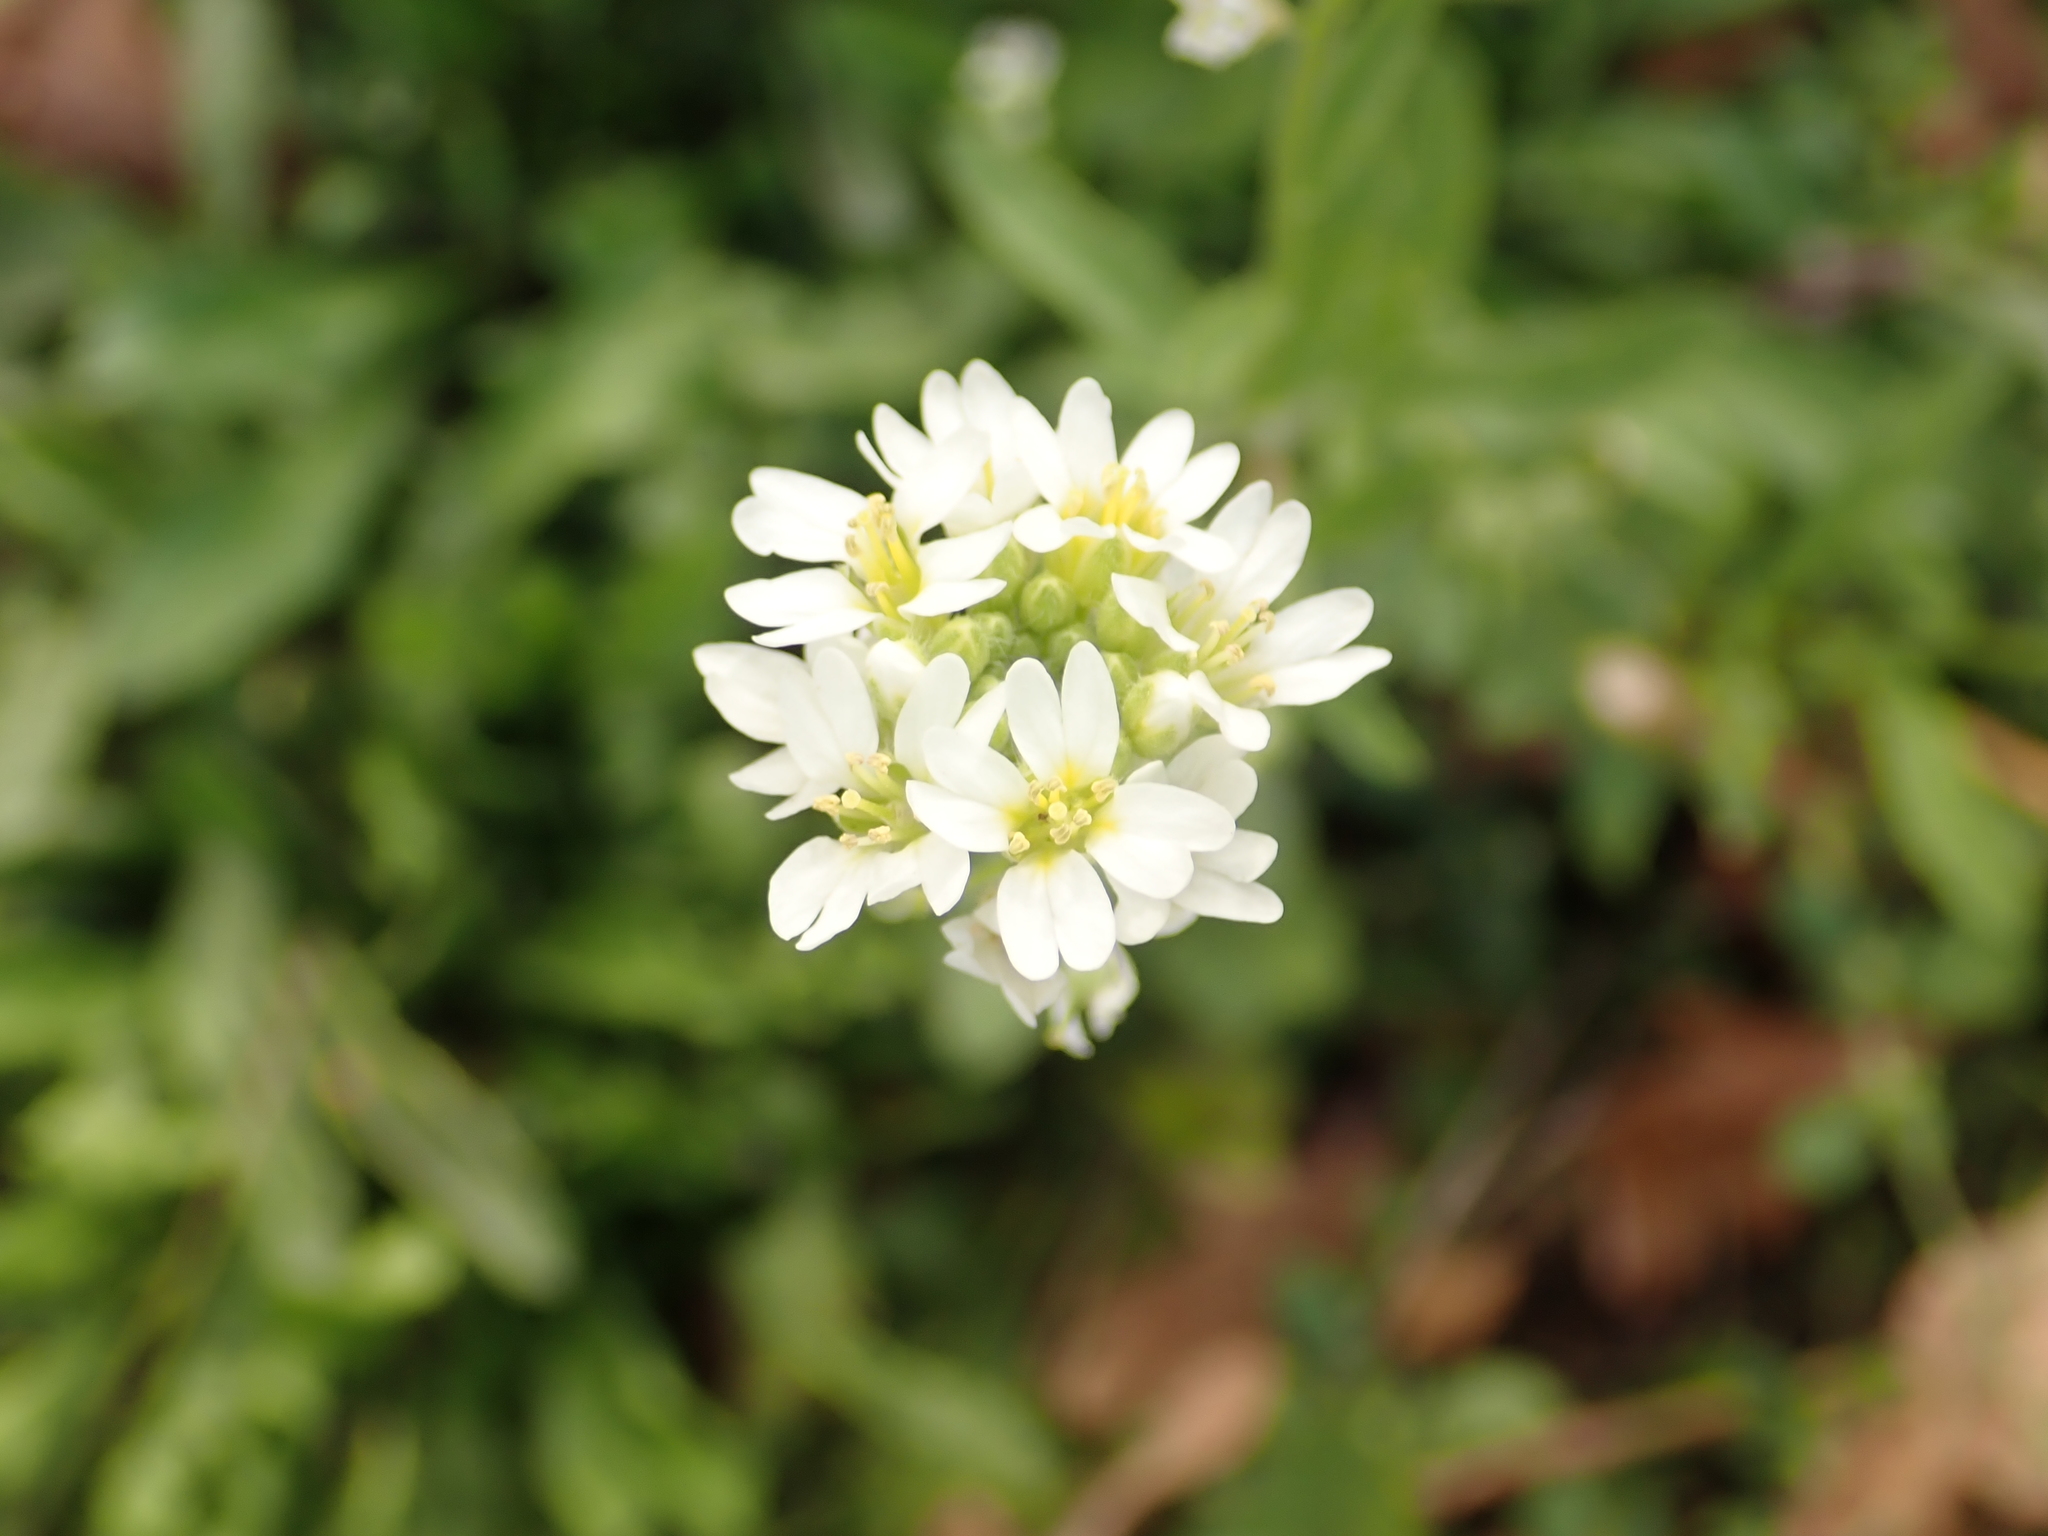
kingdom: Plantae
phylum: Tracheophyta
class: Magnoliopsida
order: Brassicales
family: Brassicaceae
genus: Berteroa
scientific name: Berteroa incana
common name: Hoary alison
